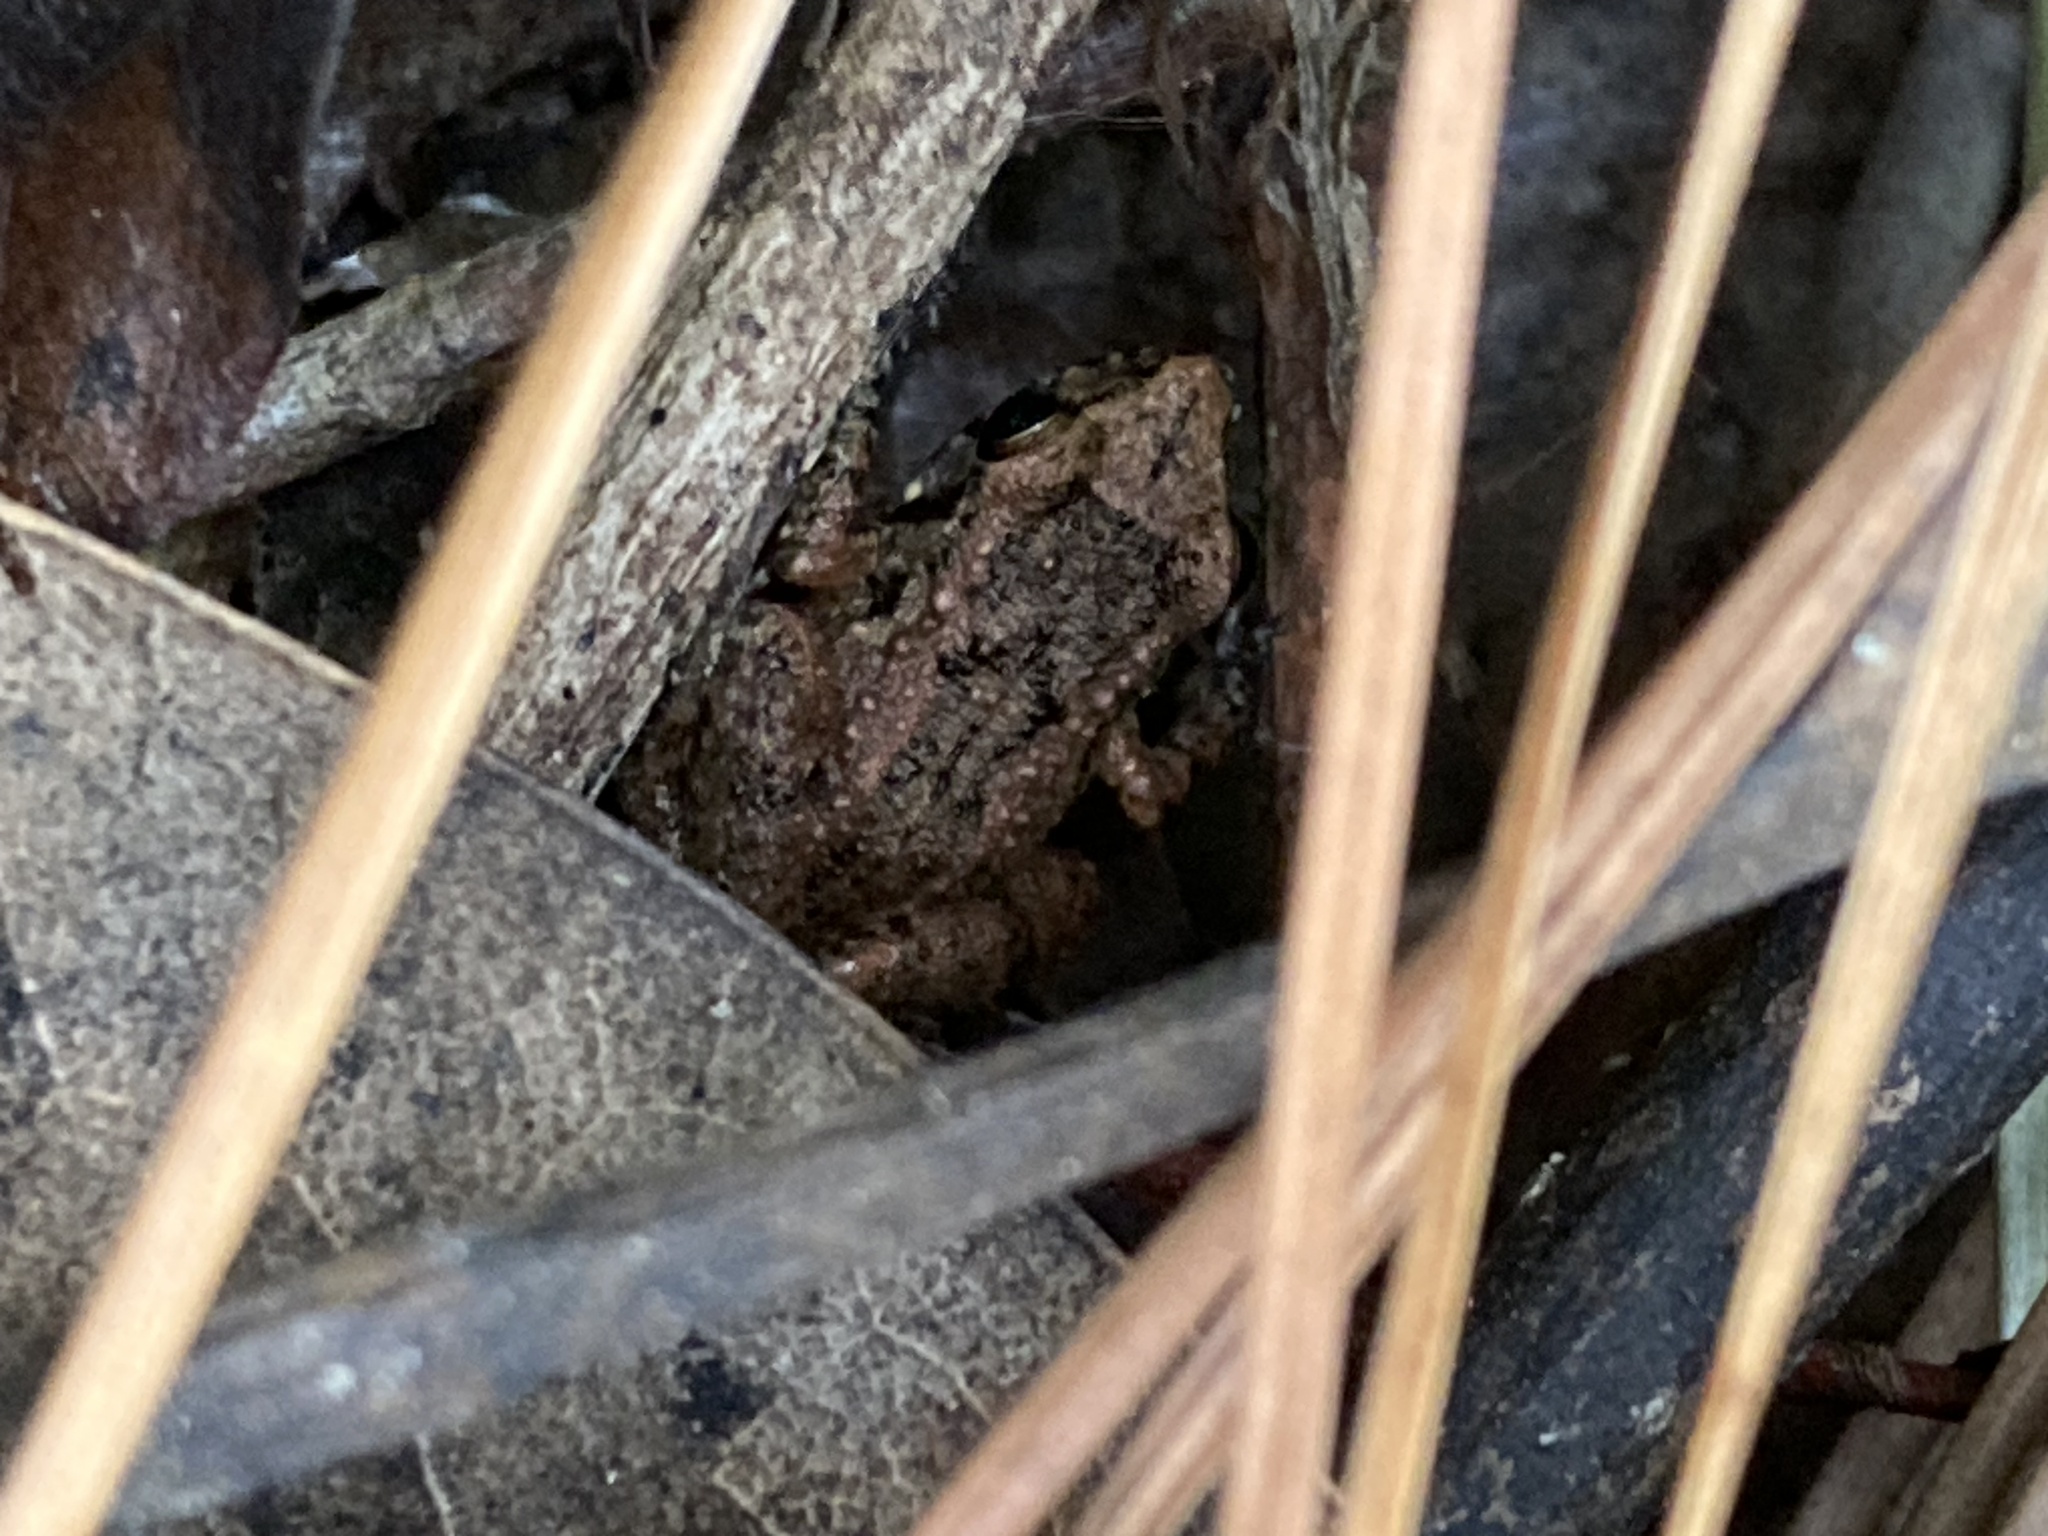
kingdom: Animalia
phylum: Chordata
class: Amphibia
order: Anura
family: Eleutherodactylidae
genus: Eleutherodactylus
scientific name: Eleutherodactylus planirostris
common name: Greenhouse frog
